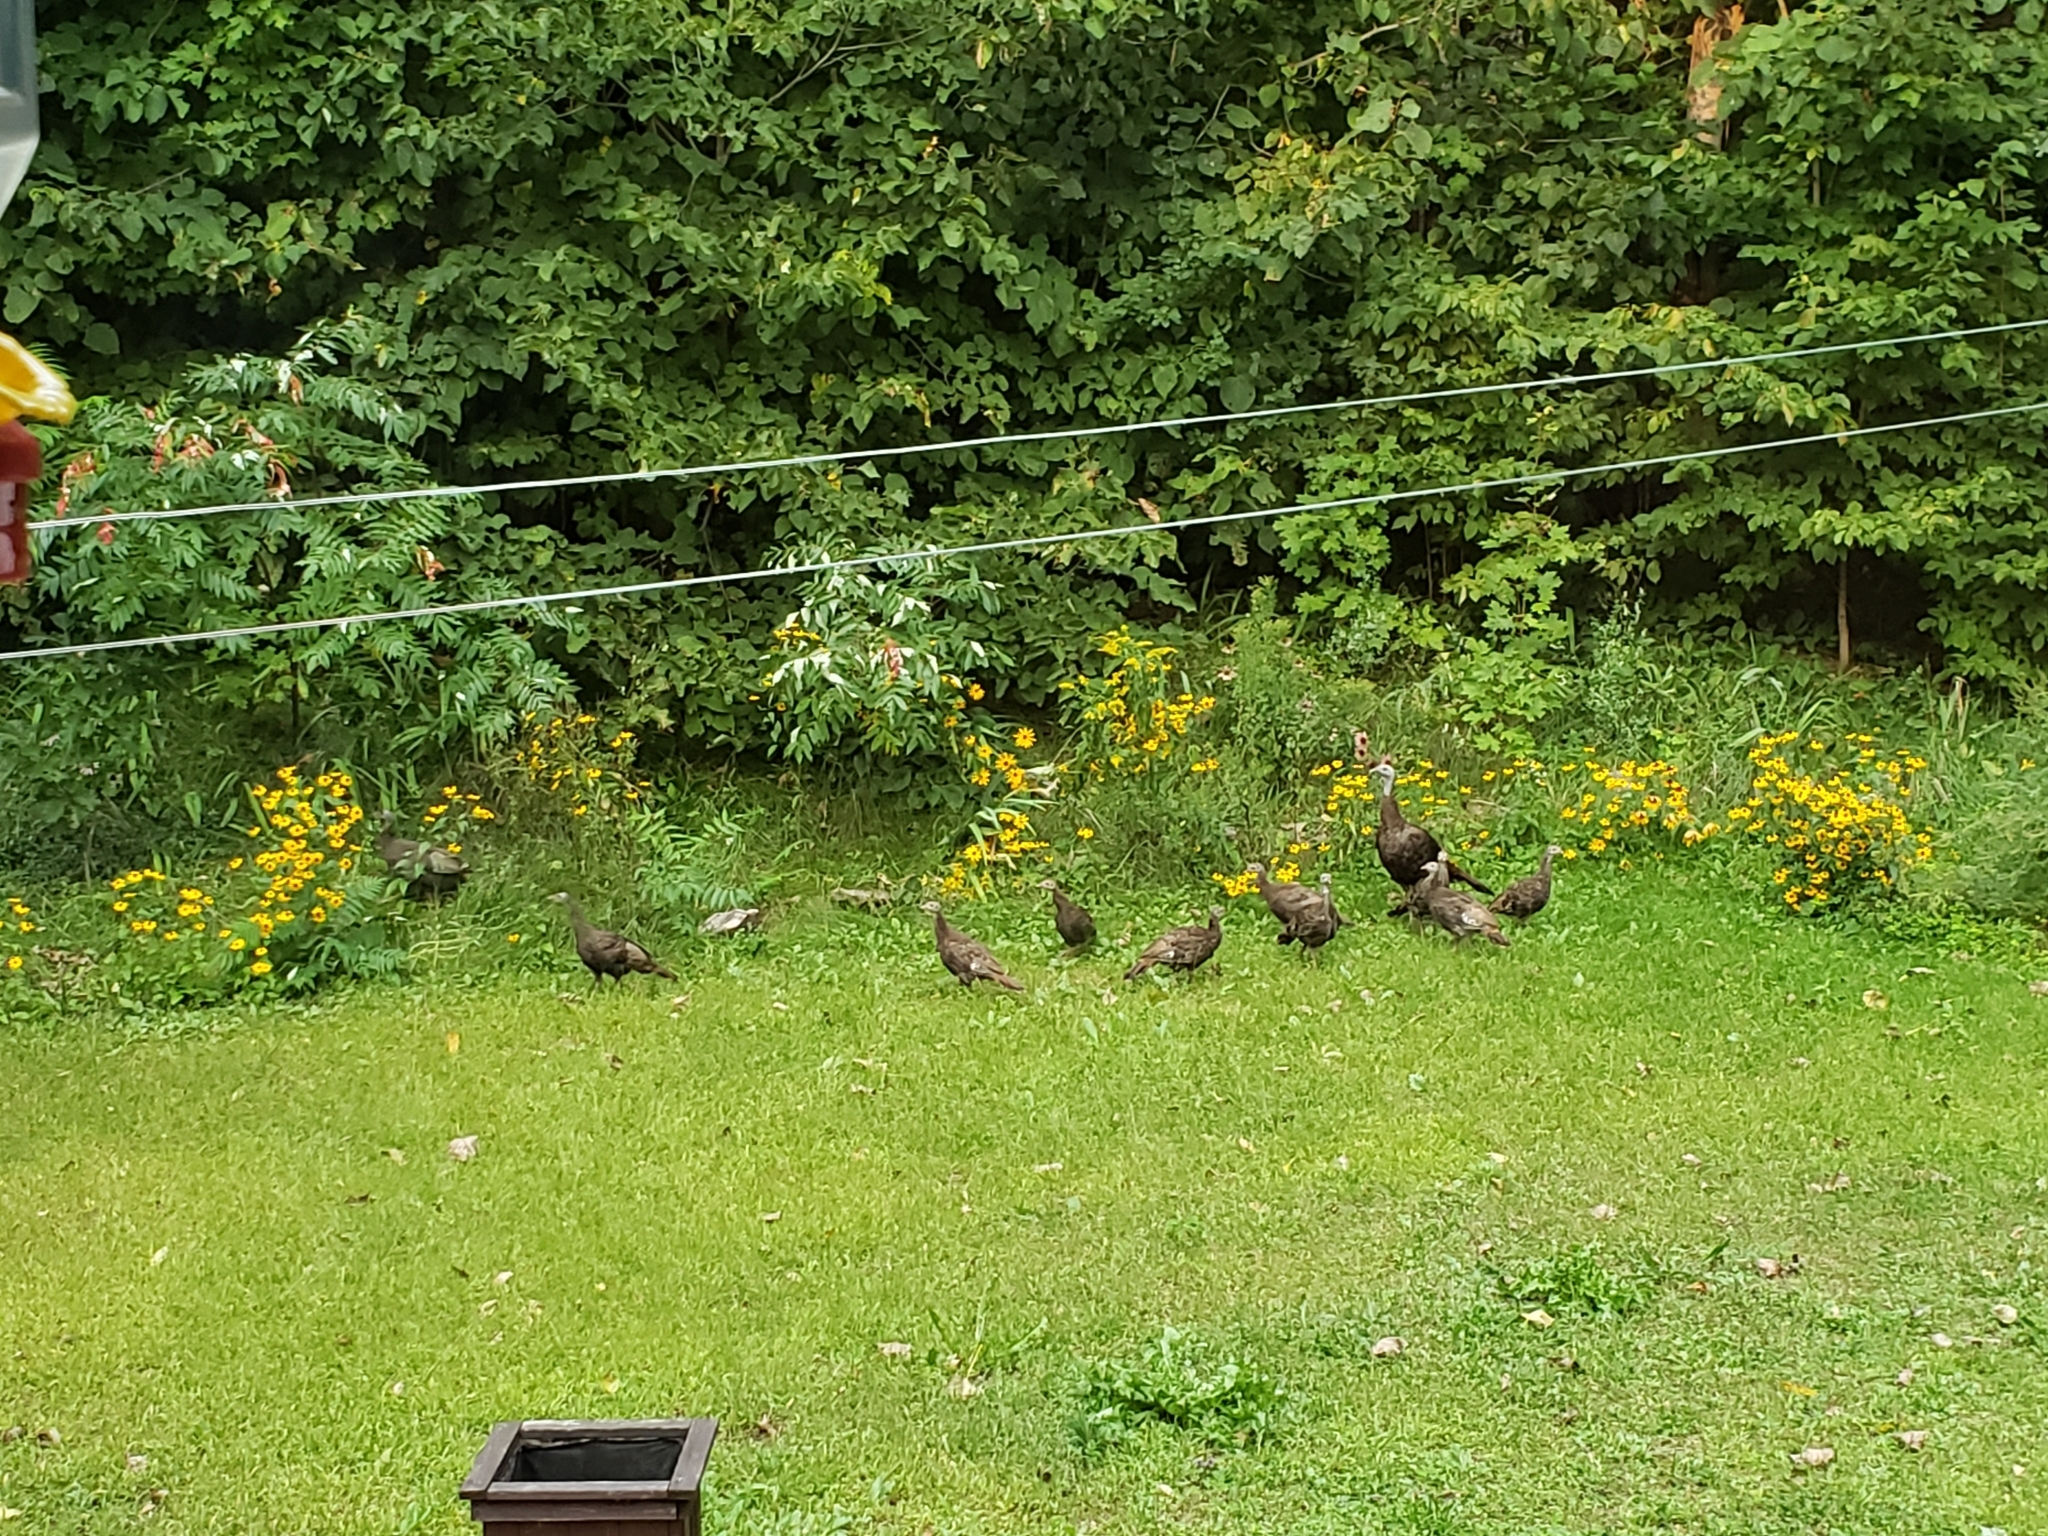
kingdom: Animalia
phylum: Chordata
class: Aves
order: Galliformes
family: Phasianidae
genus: Meleagris
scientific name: Meleagris gallopavo
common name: Wild turkey
